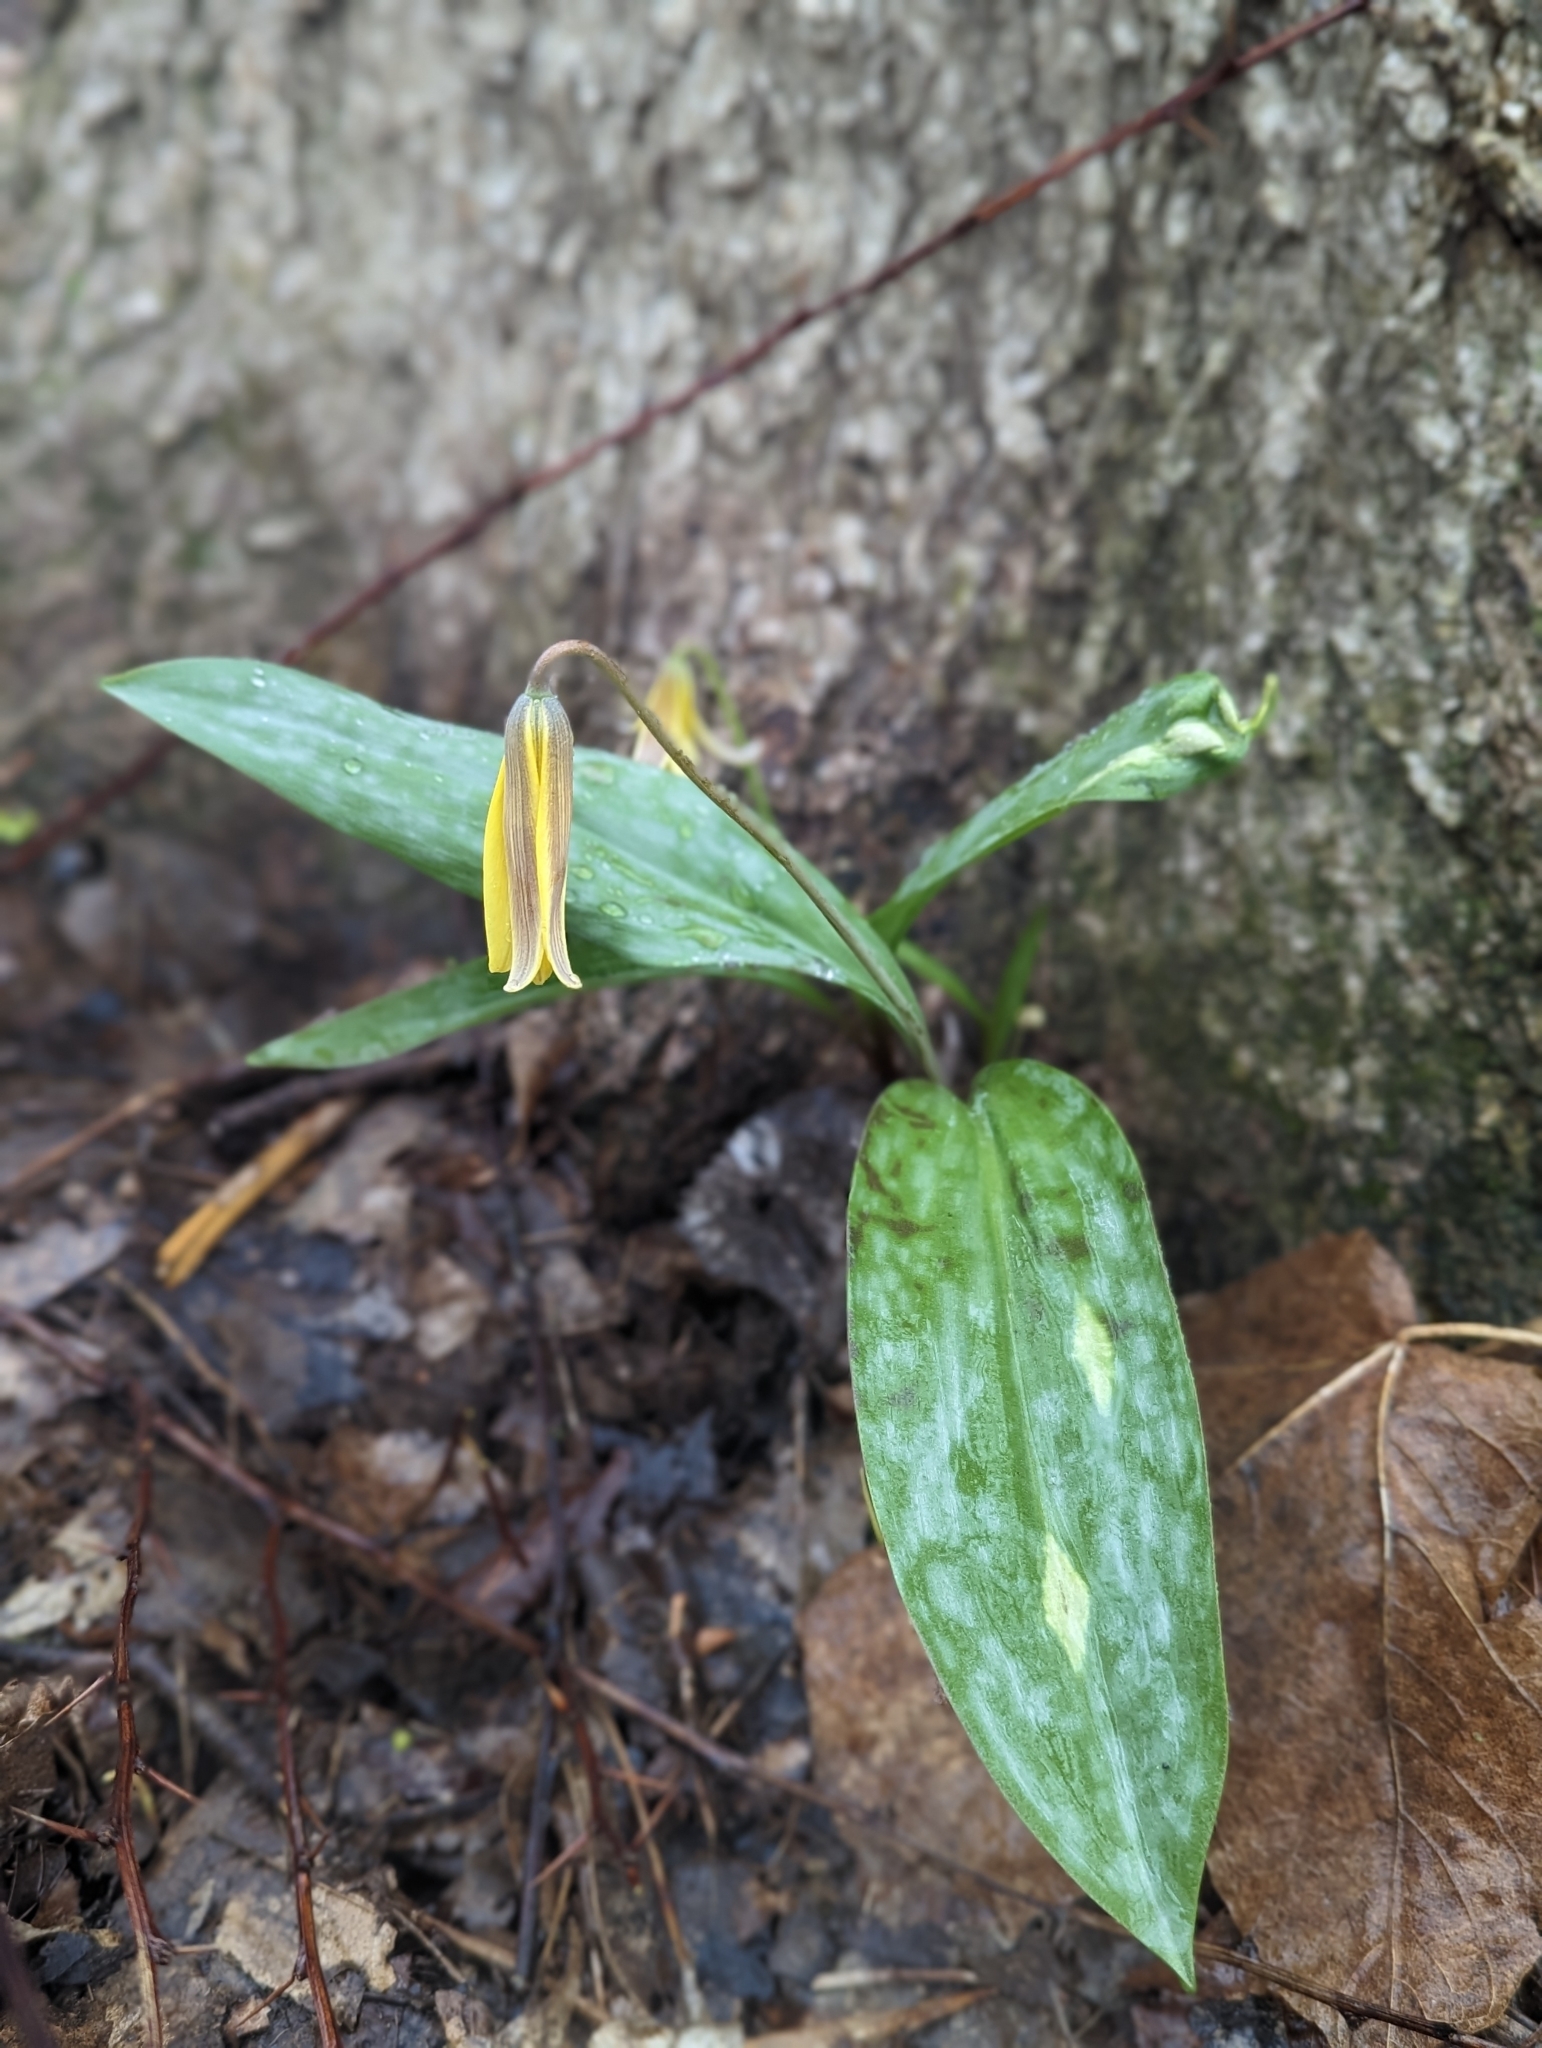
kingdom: Plantae
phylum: Tracheophyta
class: Liliopsida
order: Liliales
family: Liliaceae
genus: Erythronium
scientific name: Erythronium americanum
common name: Yellow adder's-tongue
